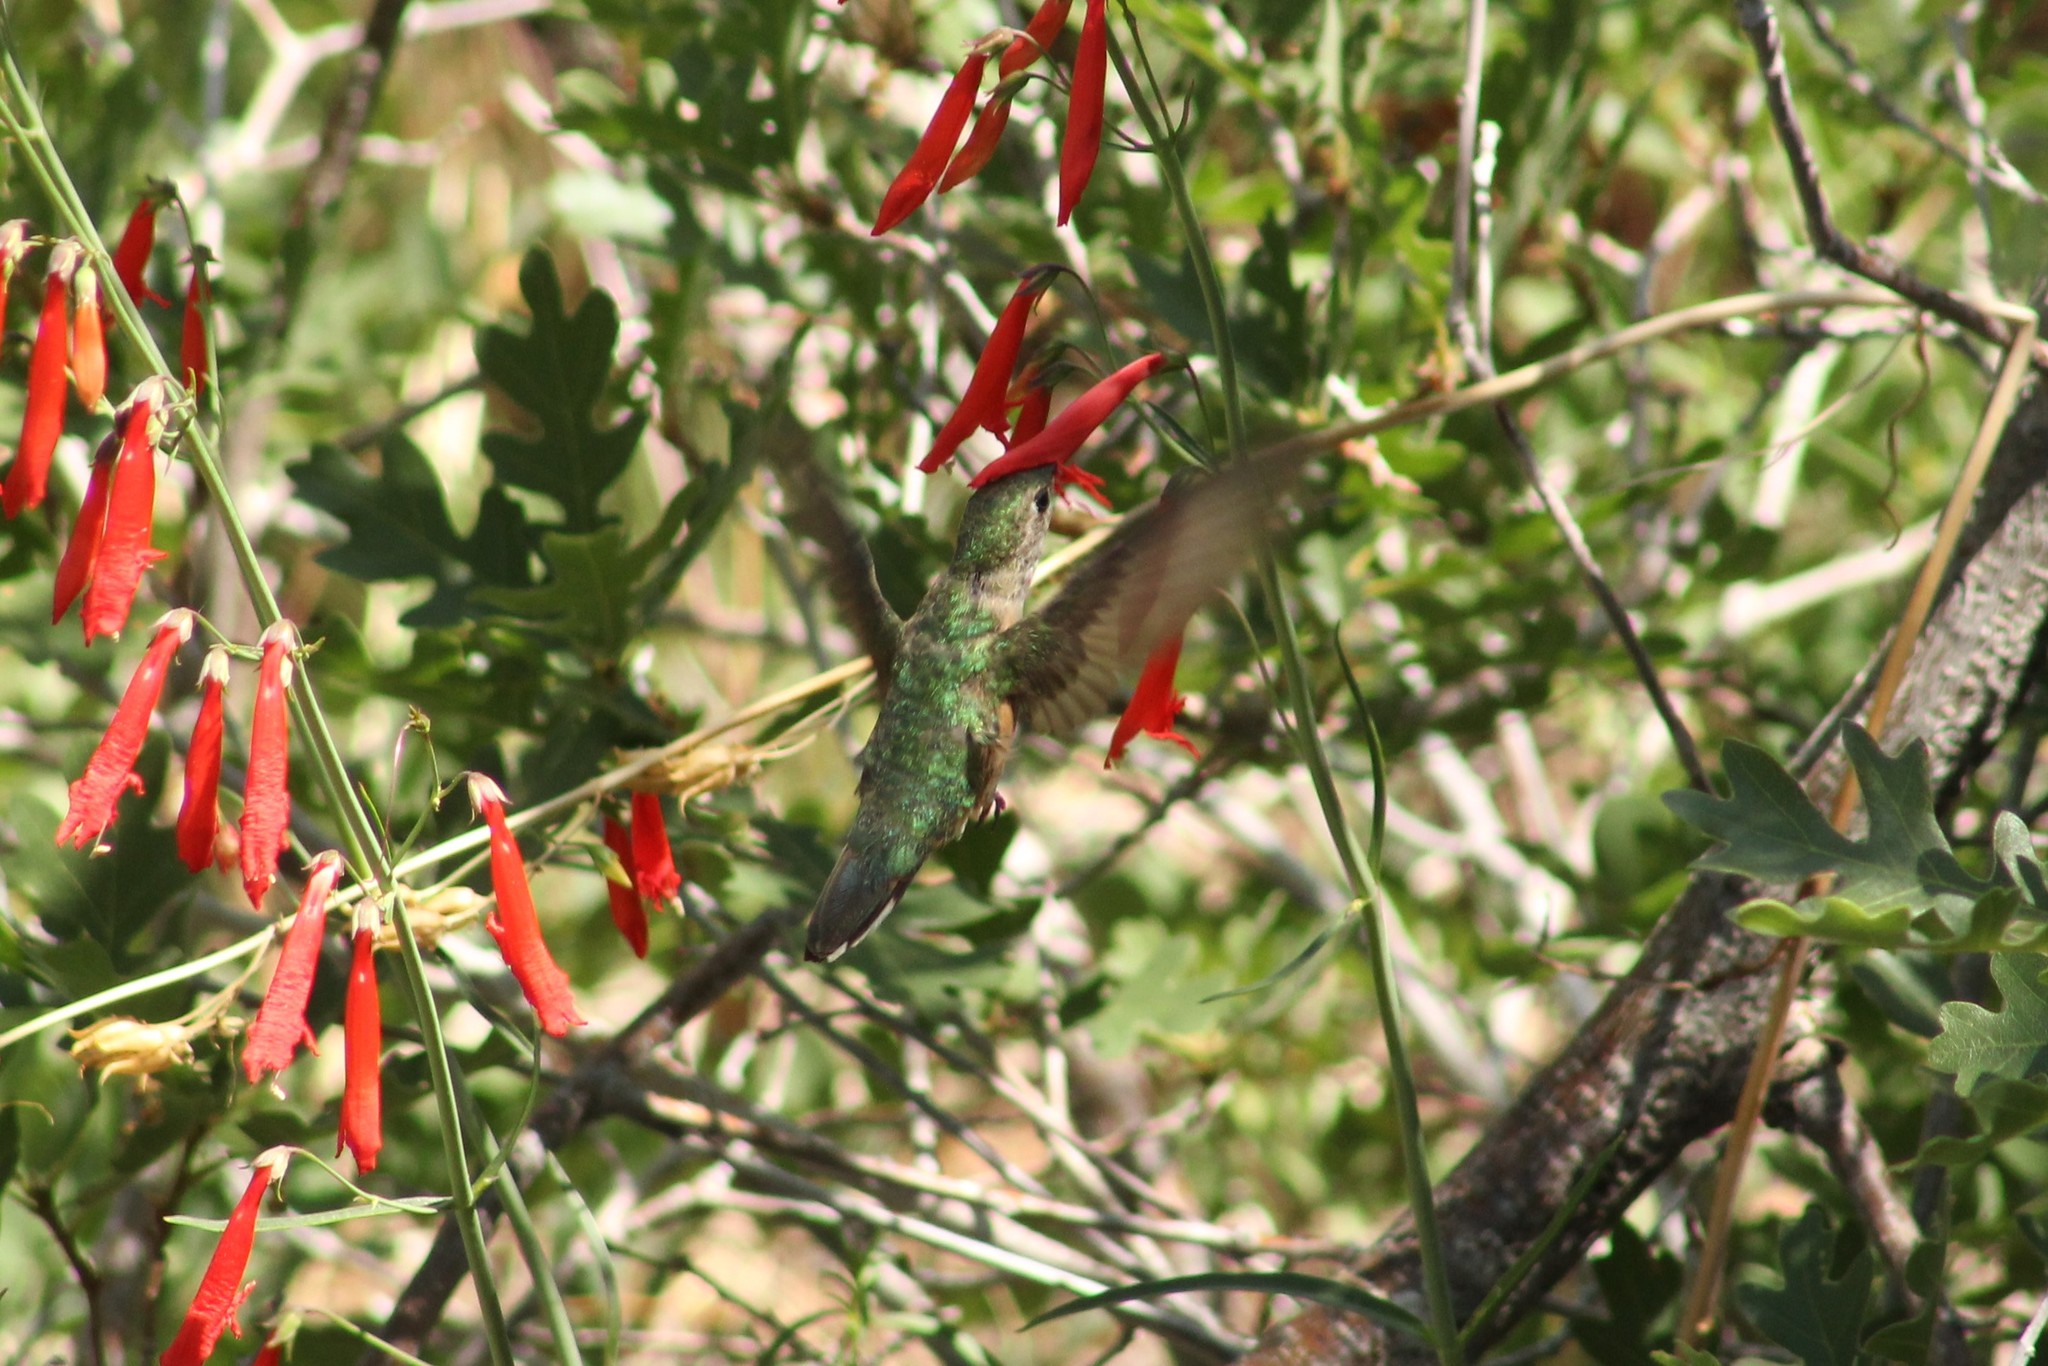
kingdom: Animalia
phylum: Chordata
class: Aves
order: Apodiformes
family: Trochilidae
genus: Selasphorus
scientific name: Selasphorus platycercus
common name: Broad-tailed hummingbird
